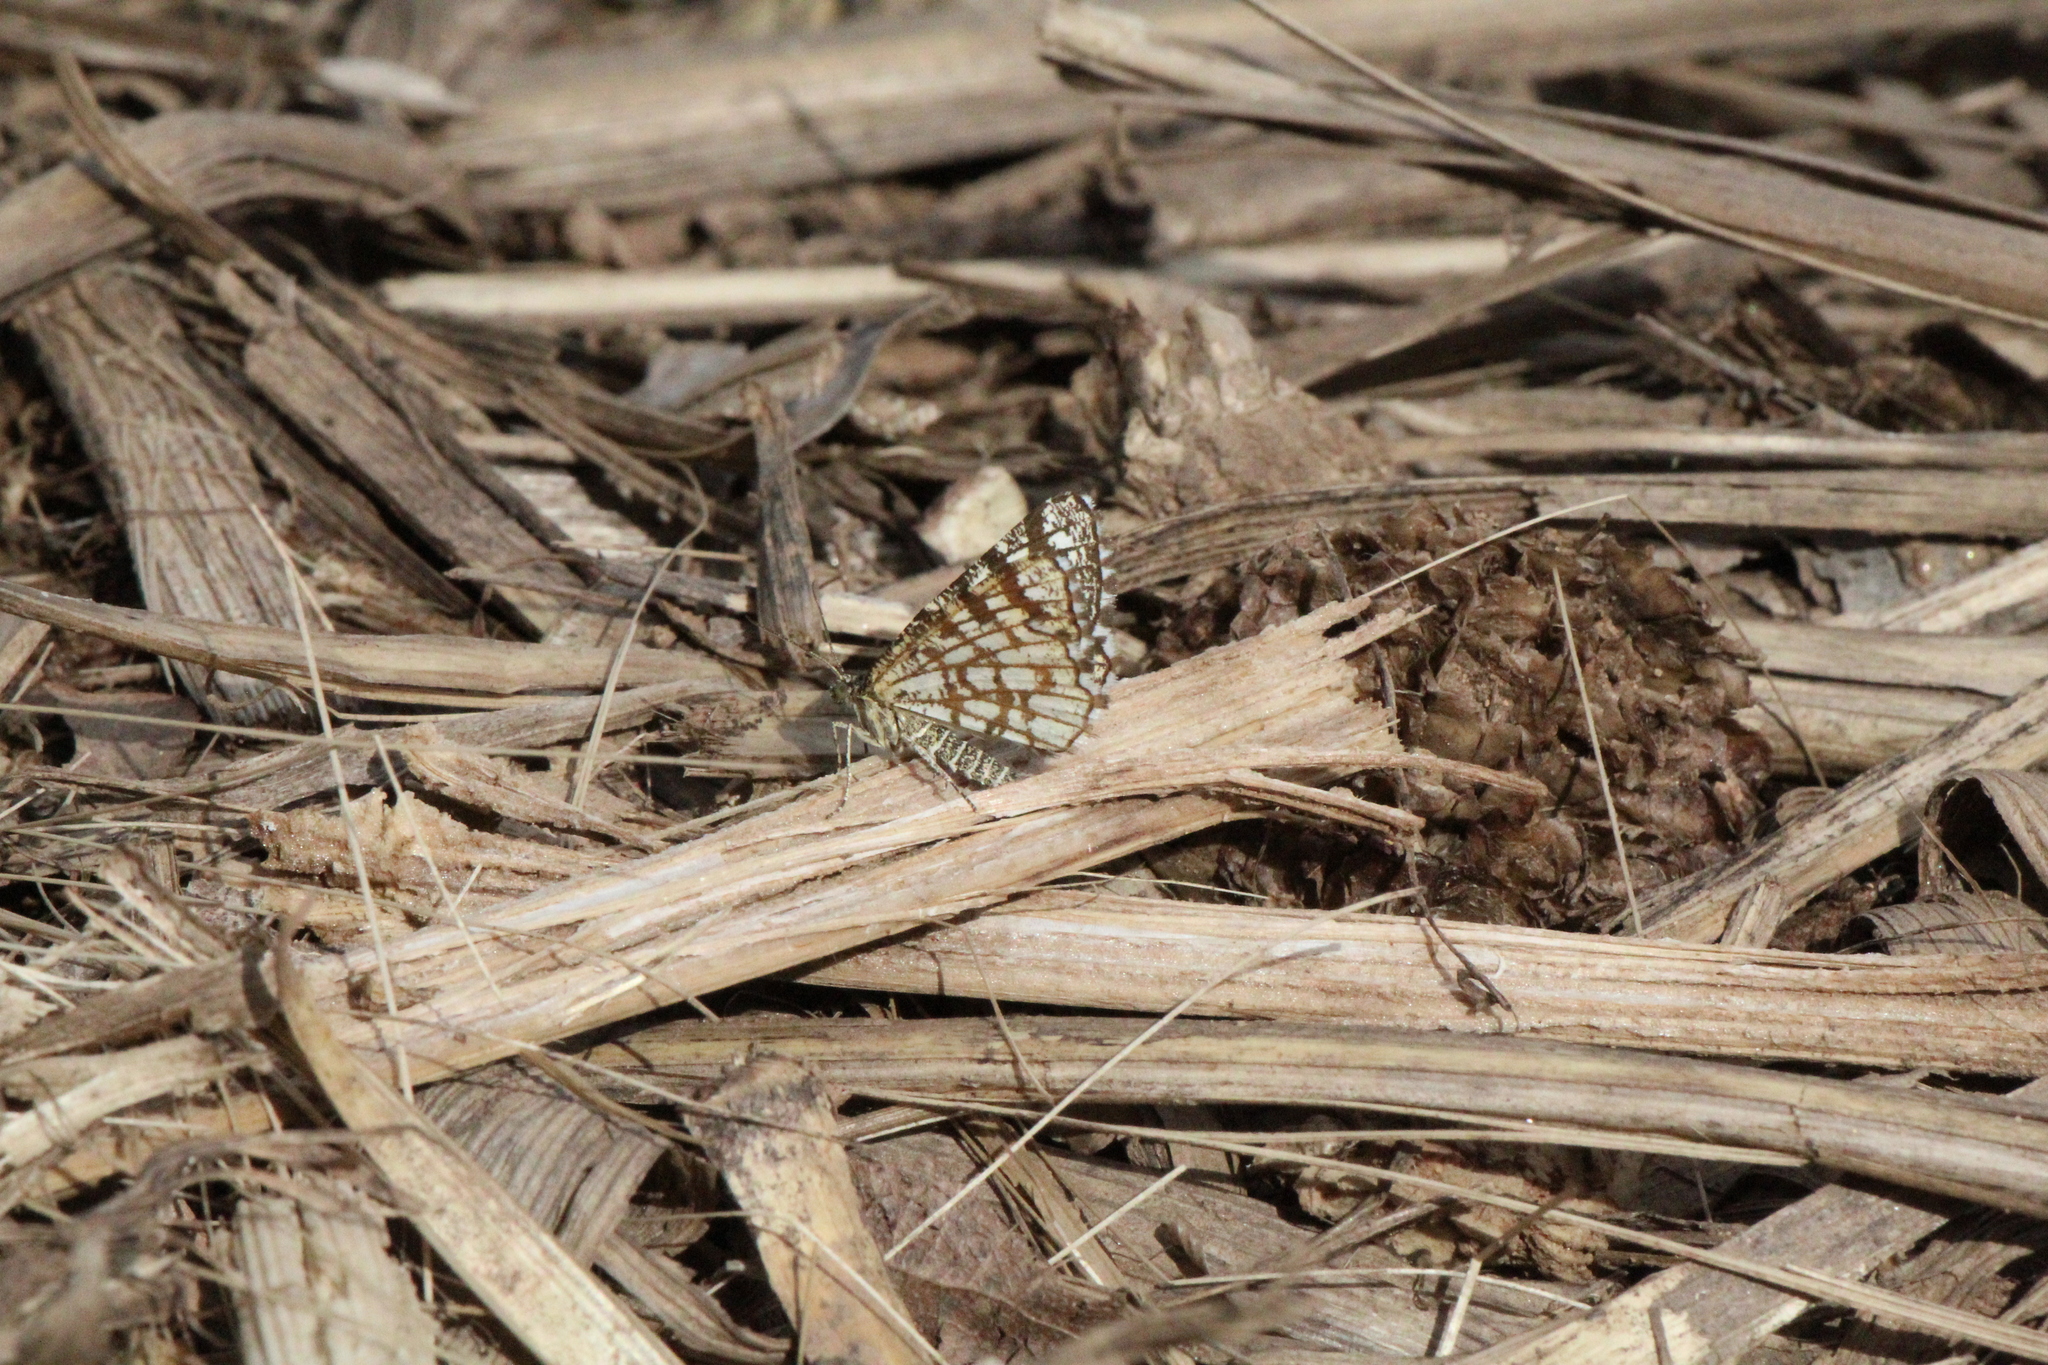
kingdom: Animalia
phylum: Arthropoda
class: Insecta
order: Lepidoptera
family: Geometridae
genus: Chiasmia
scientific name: Chiasmia clathrata
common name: Latticed heath
